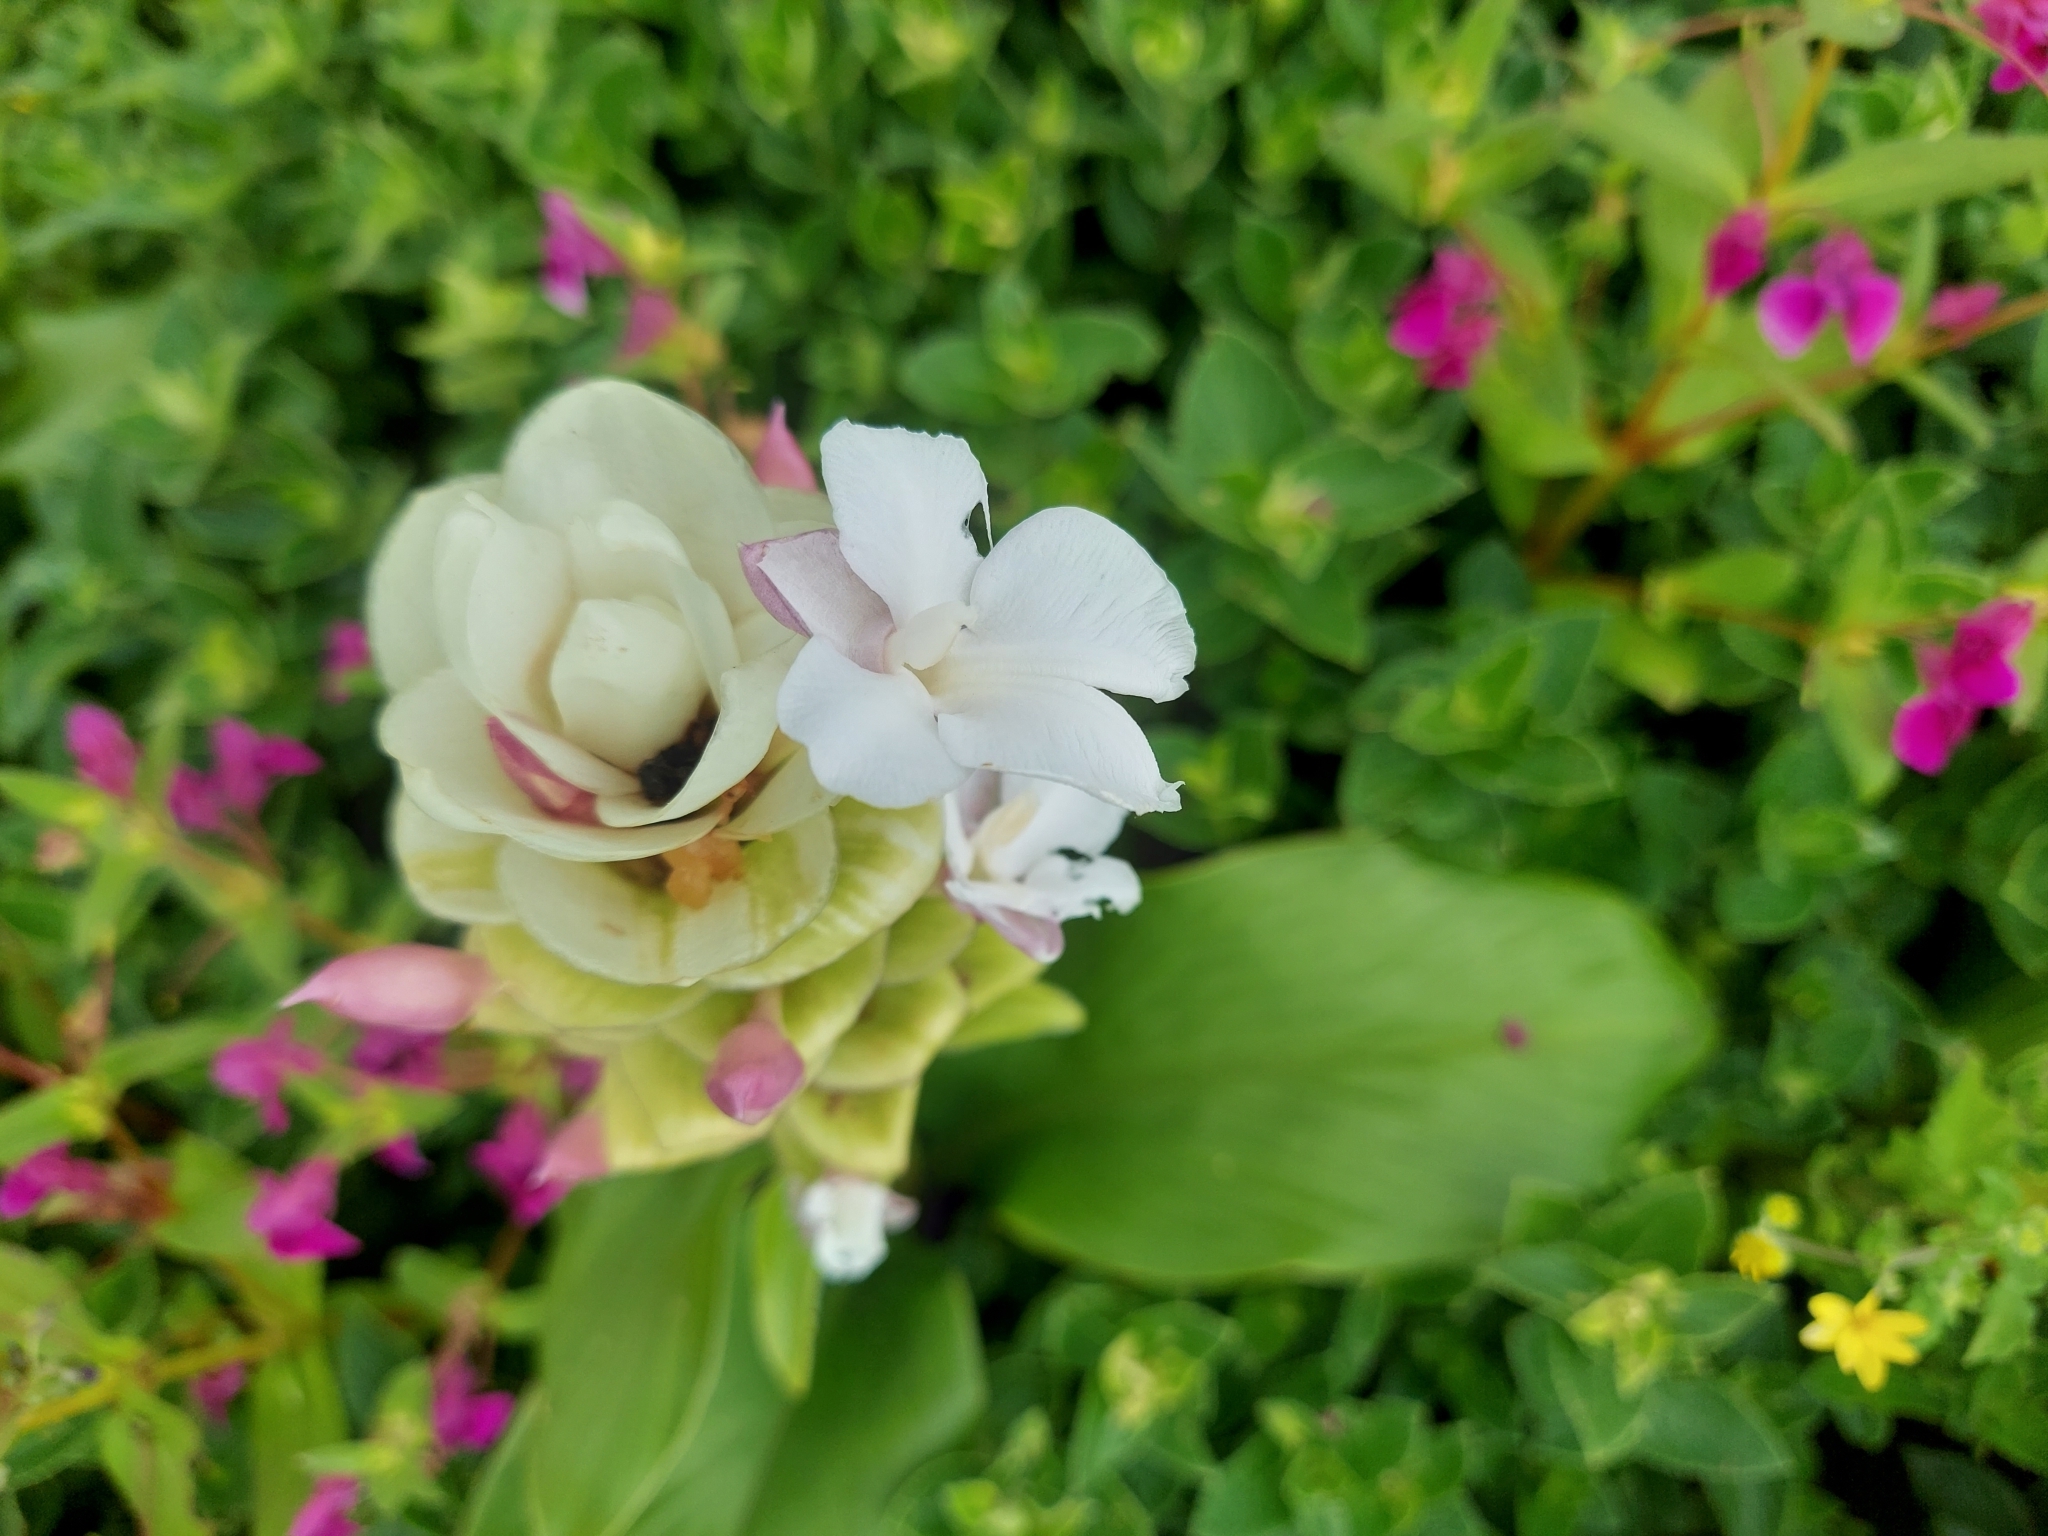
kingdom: Plantae
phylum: Tracheophyta
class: Liliopsida
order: Zingiberales
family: Zingiberaceae
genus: Curcuma
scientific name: Curcuma caulina
